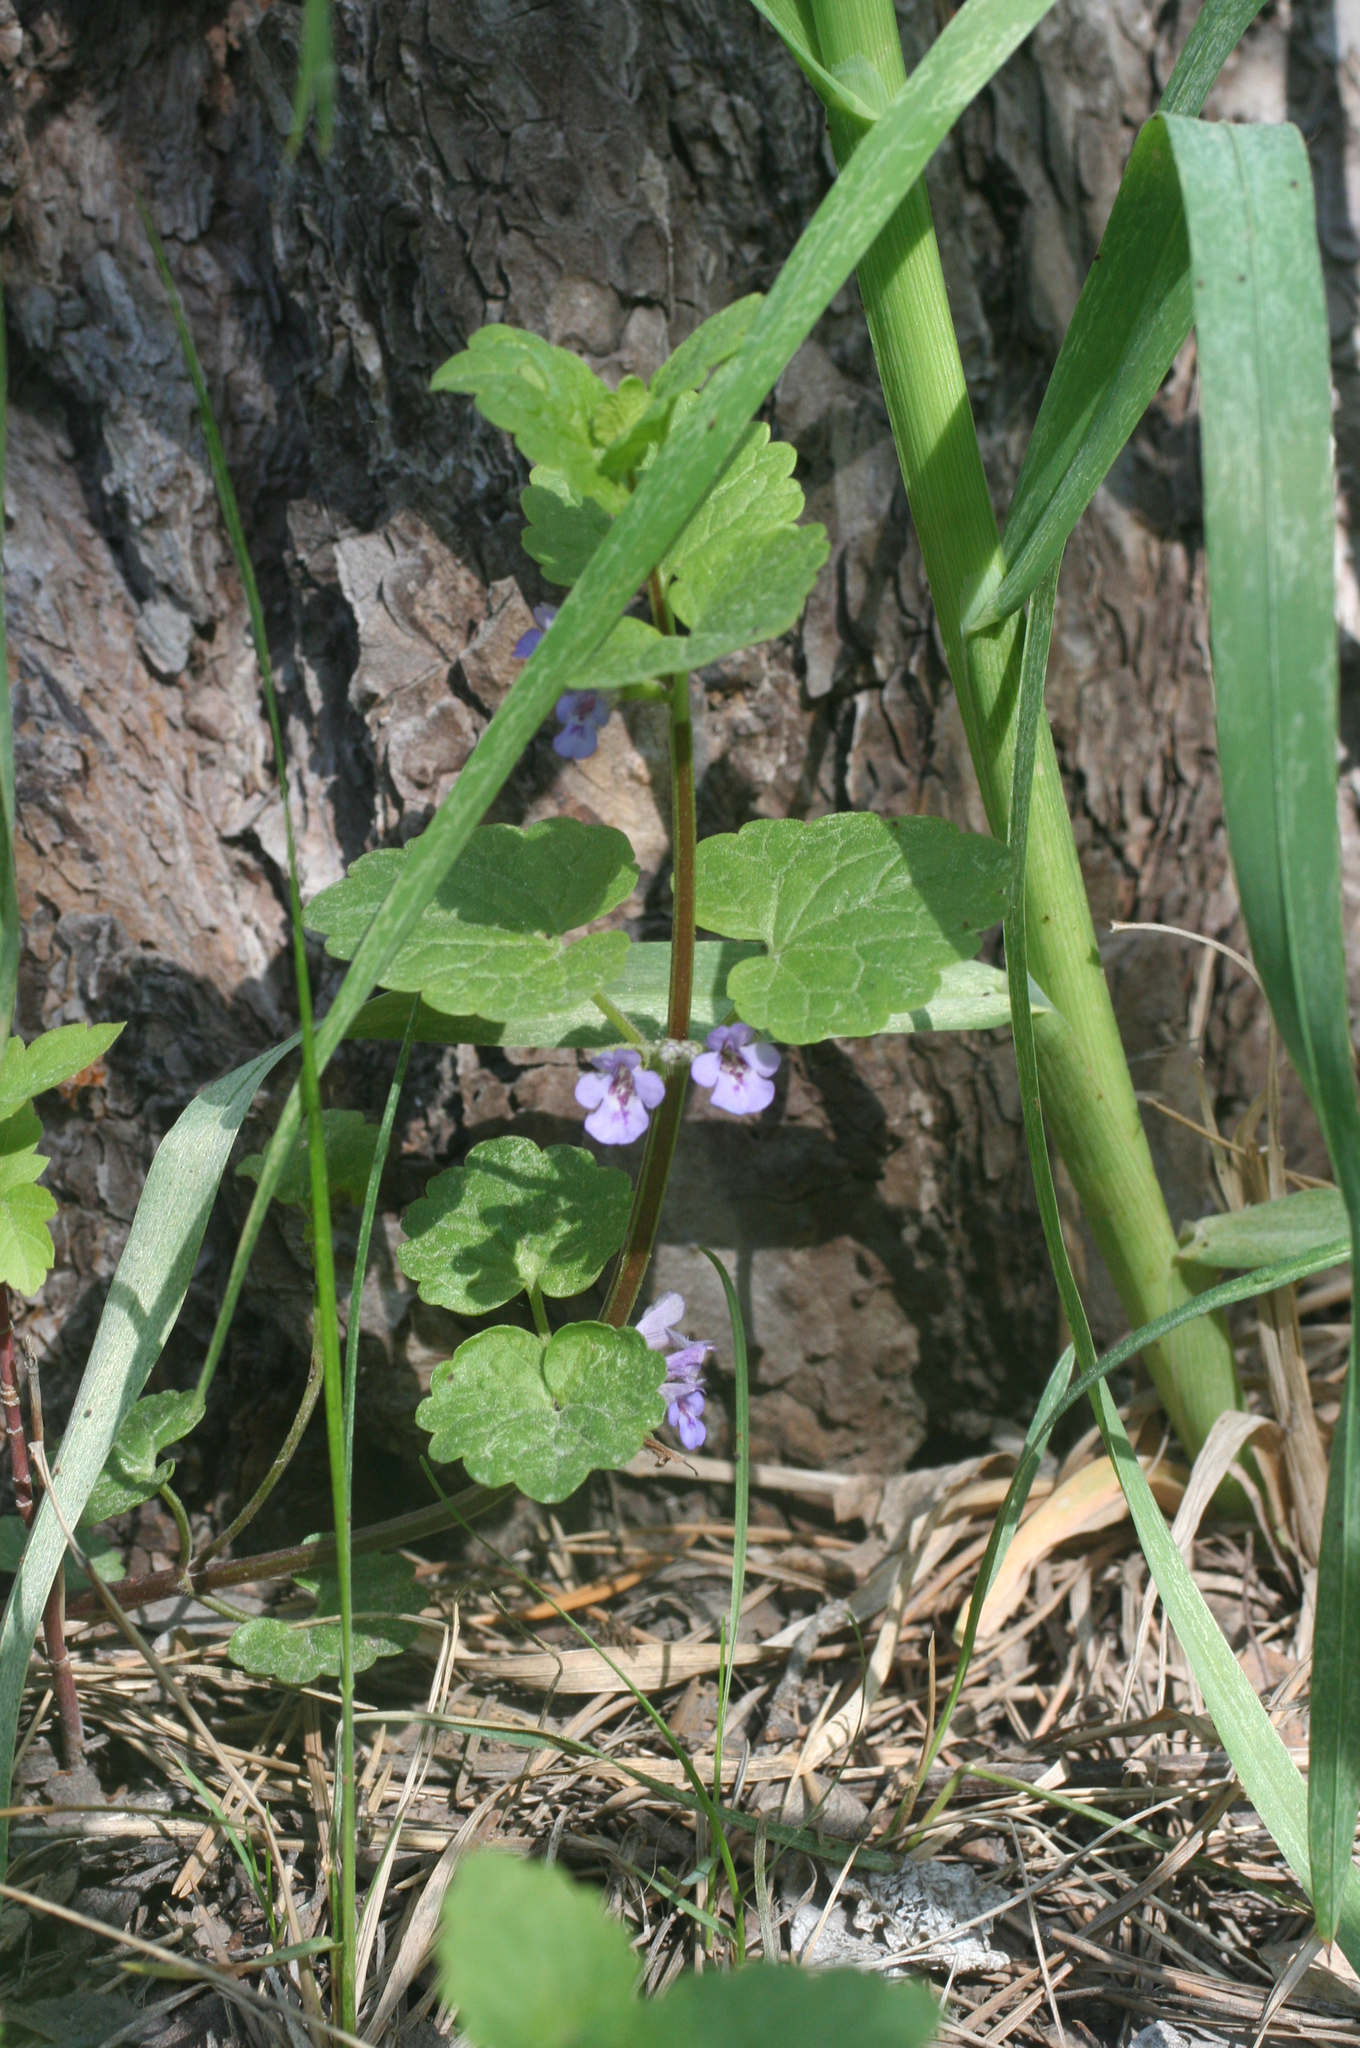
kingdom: Plantae
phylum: Tracheophyta
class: Magnoliopsida
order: Lamiales
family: Lamiaceae
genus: Glechoma
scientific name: Glechoma hederacea
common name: Ground ivy
